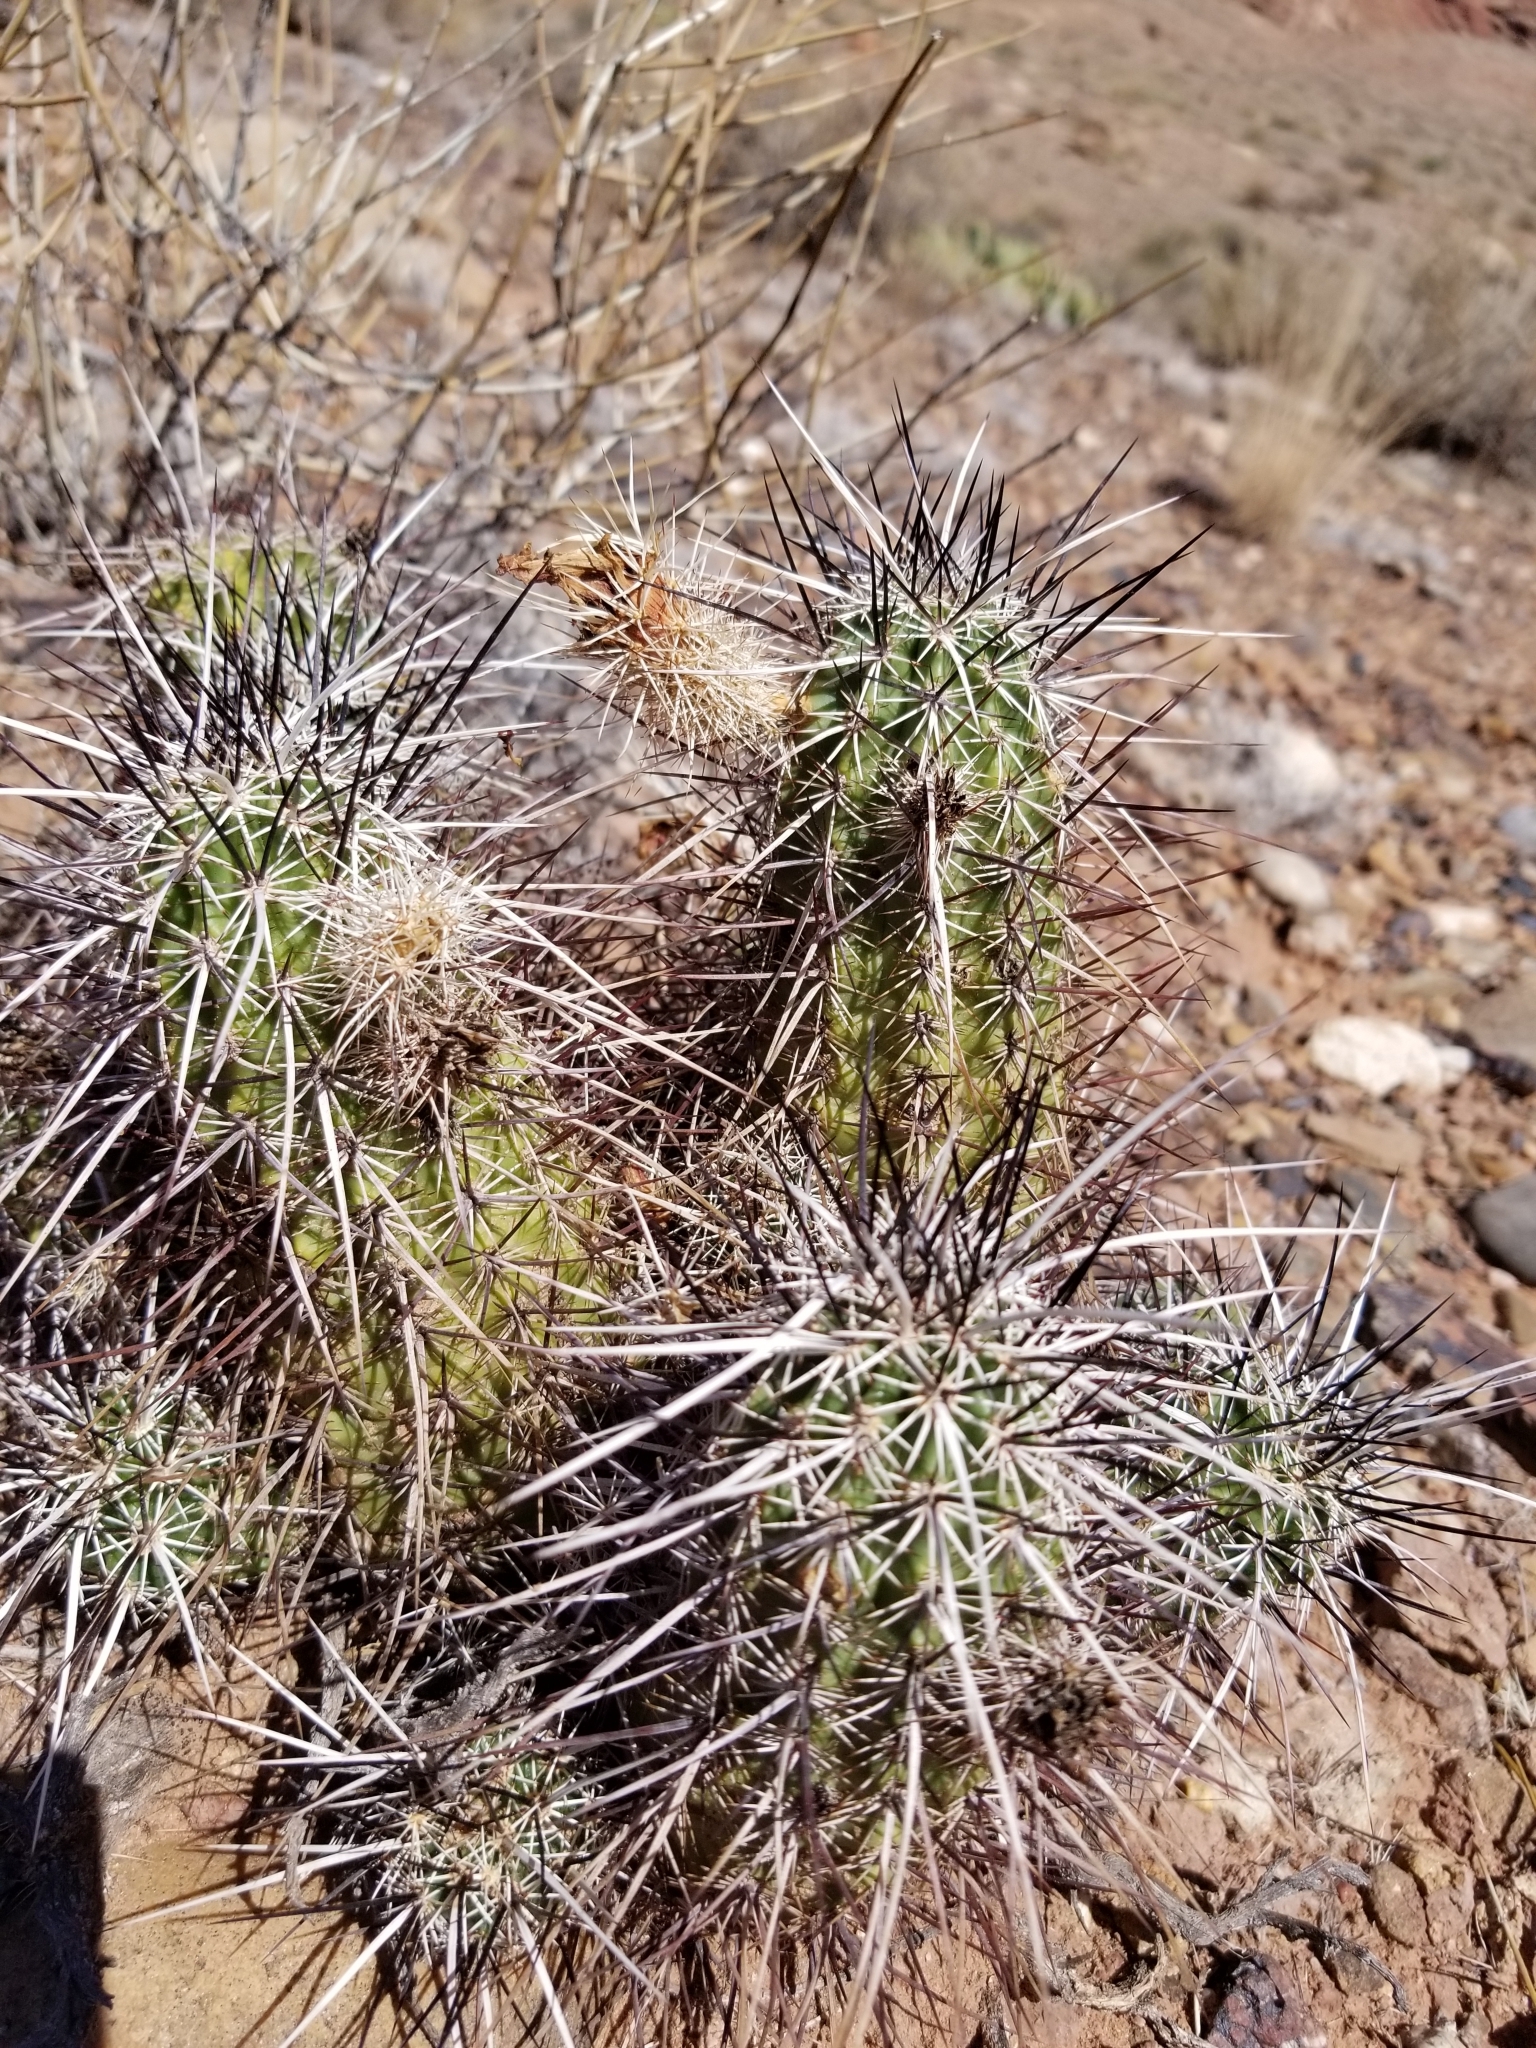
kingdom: Plantae
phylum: Tracheophyta
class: Magnoliopsida
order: Caryophyllales
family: Cactaceae
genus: Echinocereus
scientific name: Echinocereus engelmannii
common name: Engelmann's hedgehog cactus
